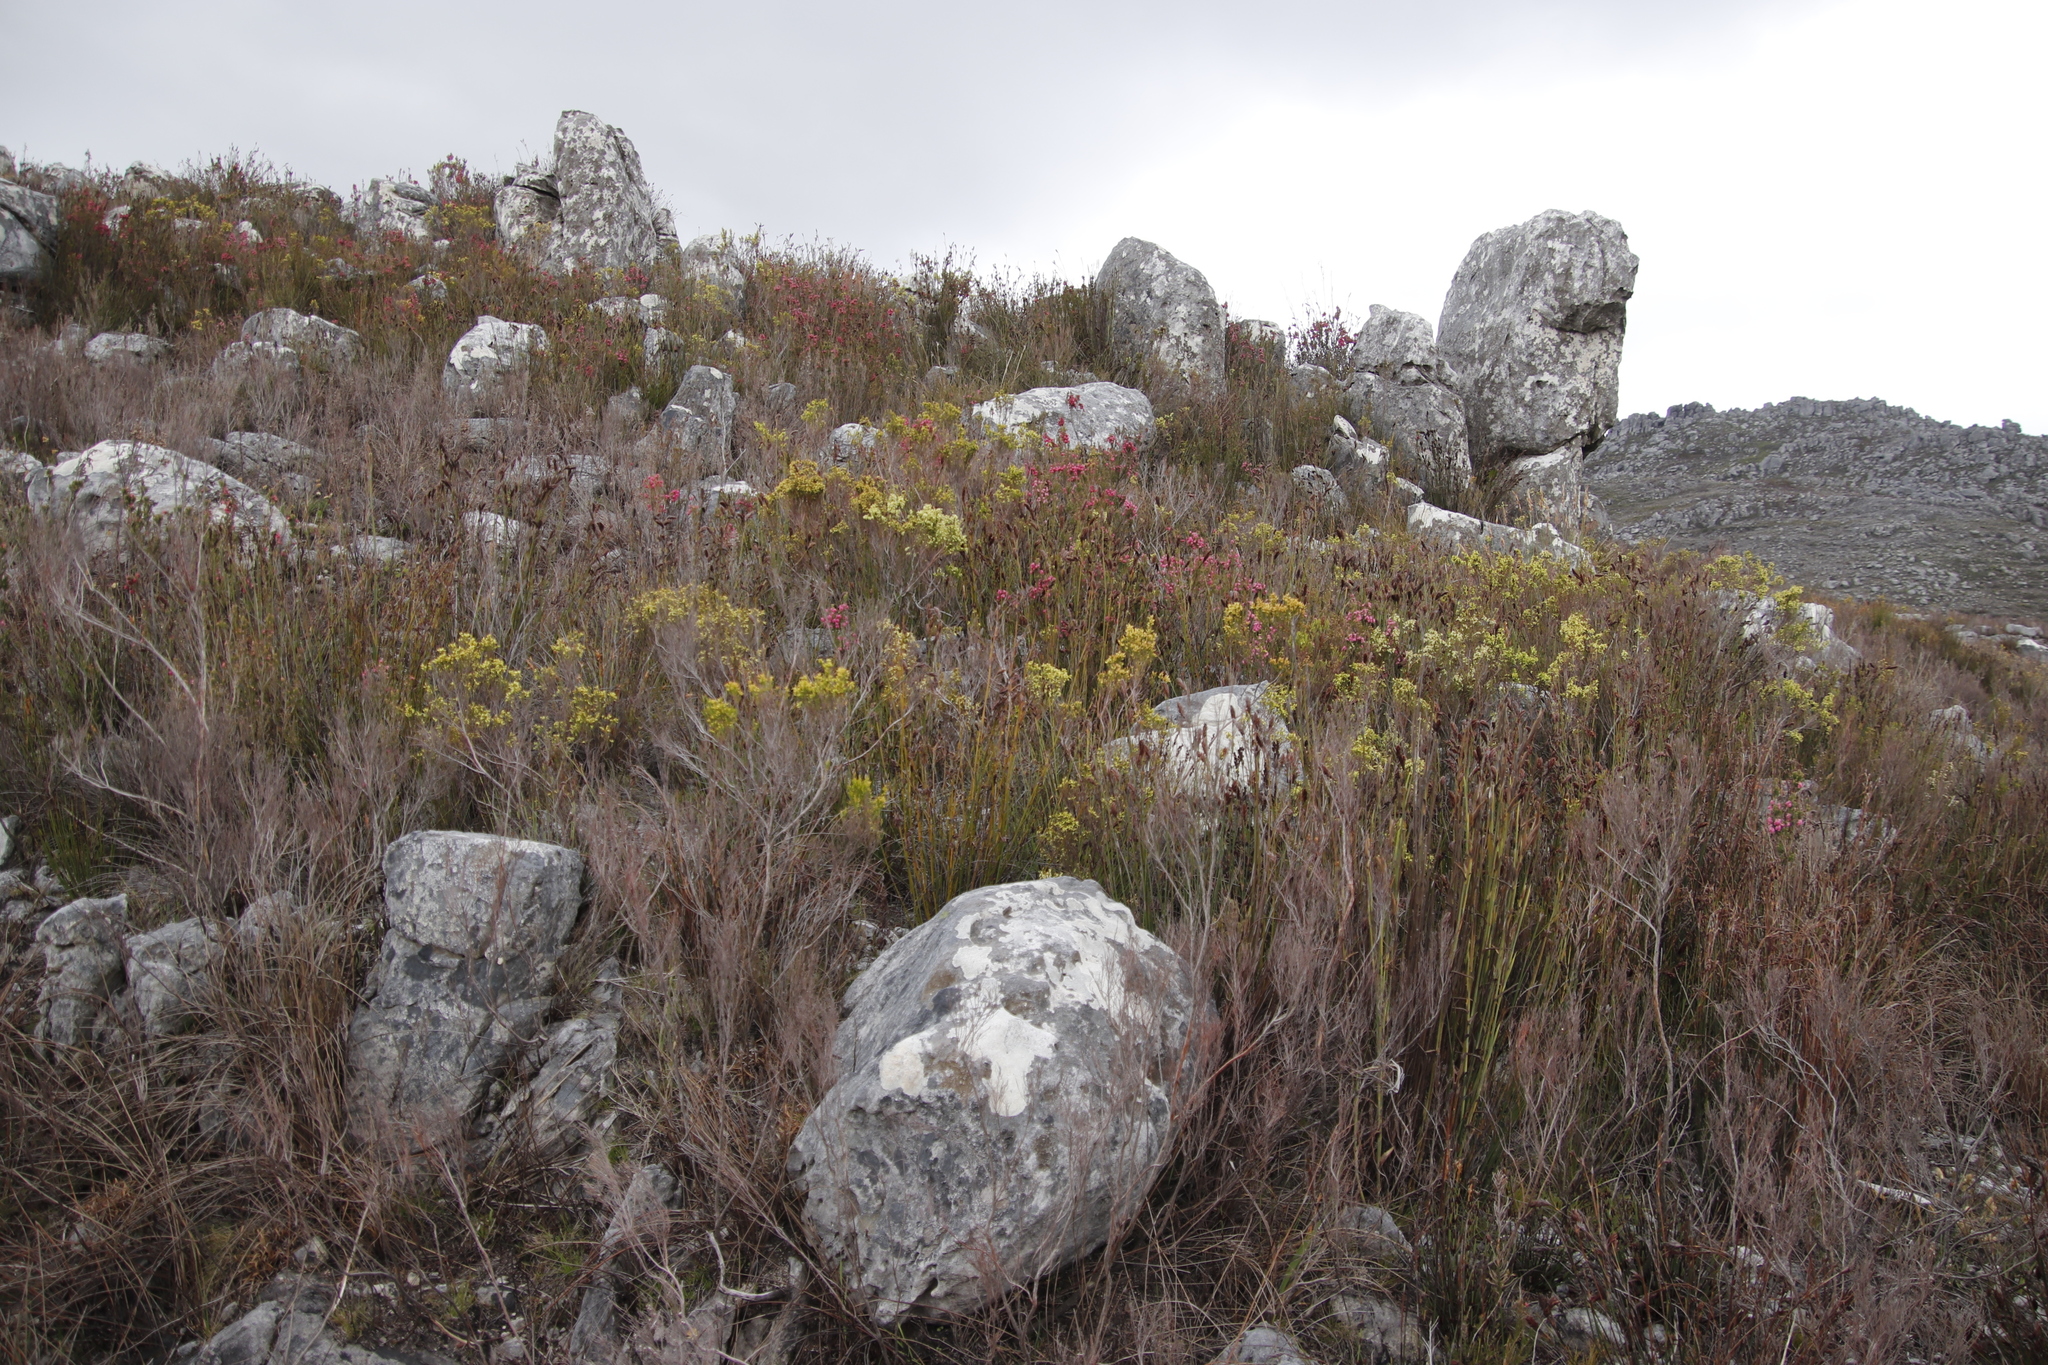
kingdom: Plantae
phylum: Tracheophyta
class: Magnoliopsida
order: Ericales
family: Ericaceae
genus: Erica
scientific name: Erica tegulifolia
